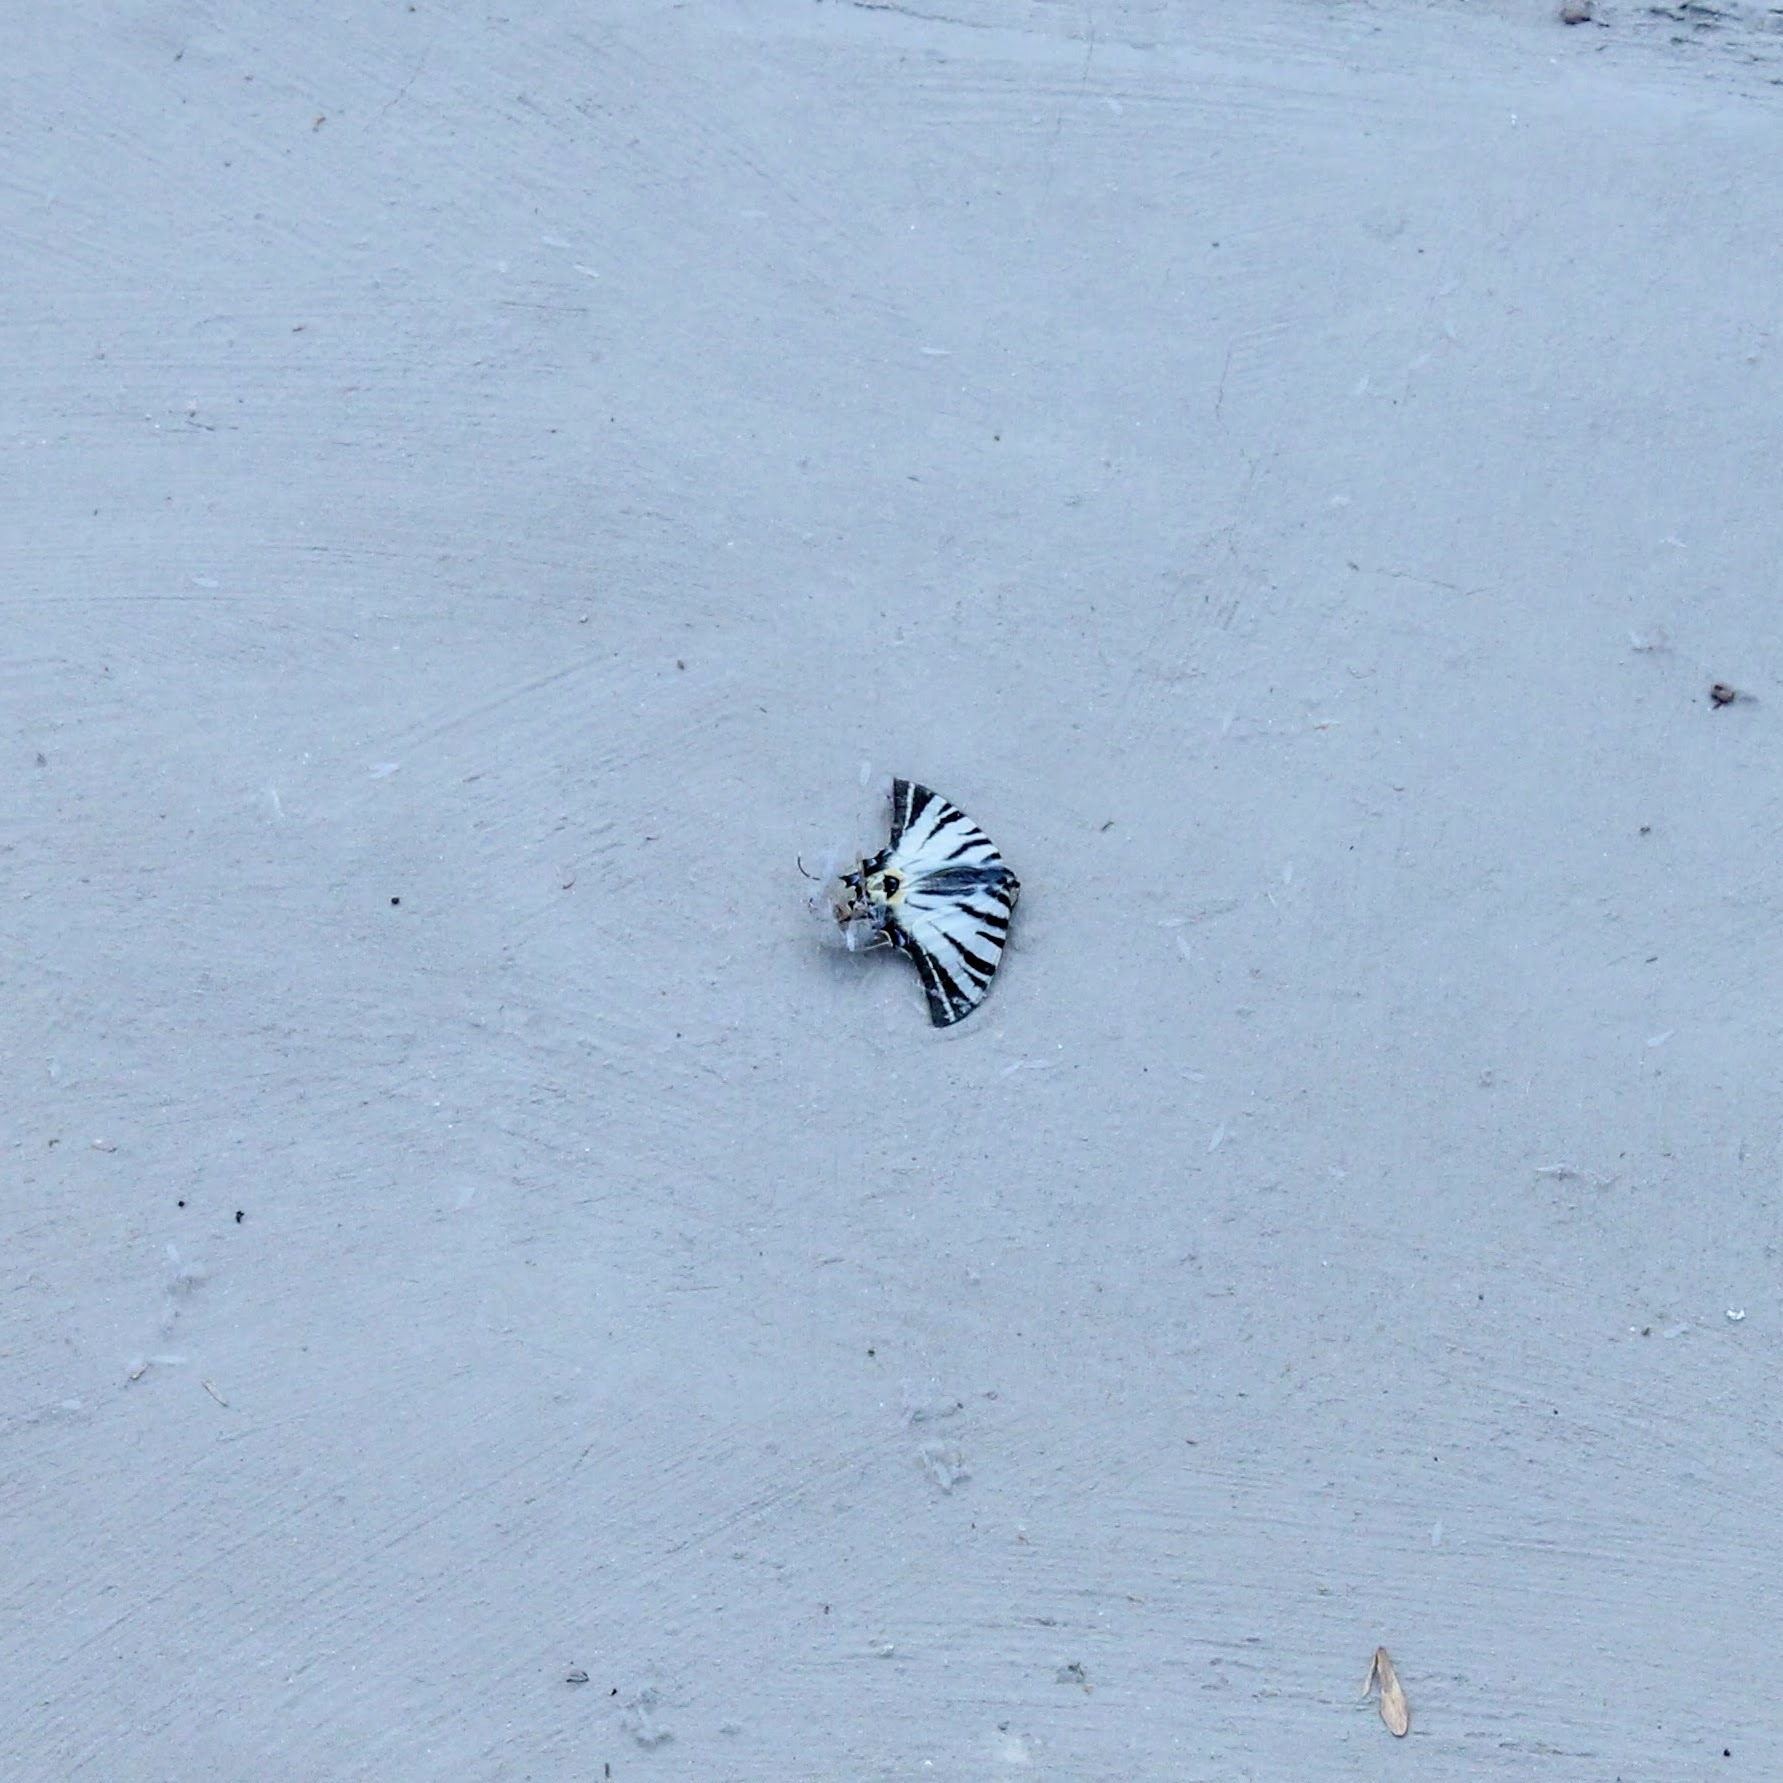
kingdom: Animalia
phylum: Arthropoda
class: Insecta
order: Lepidoptera
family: Papilionidae
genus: Iphiclides
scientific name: Iphiclides podalirius
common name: Scarce swallowtail
